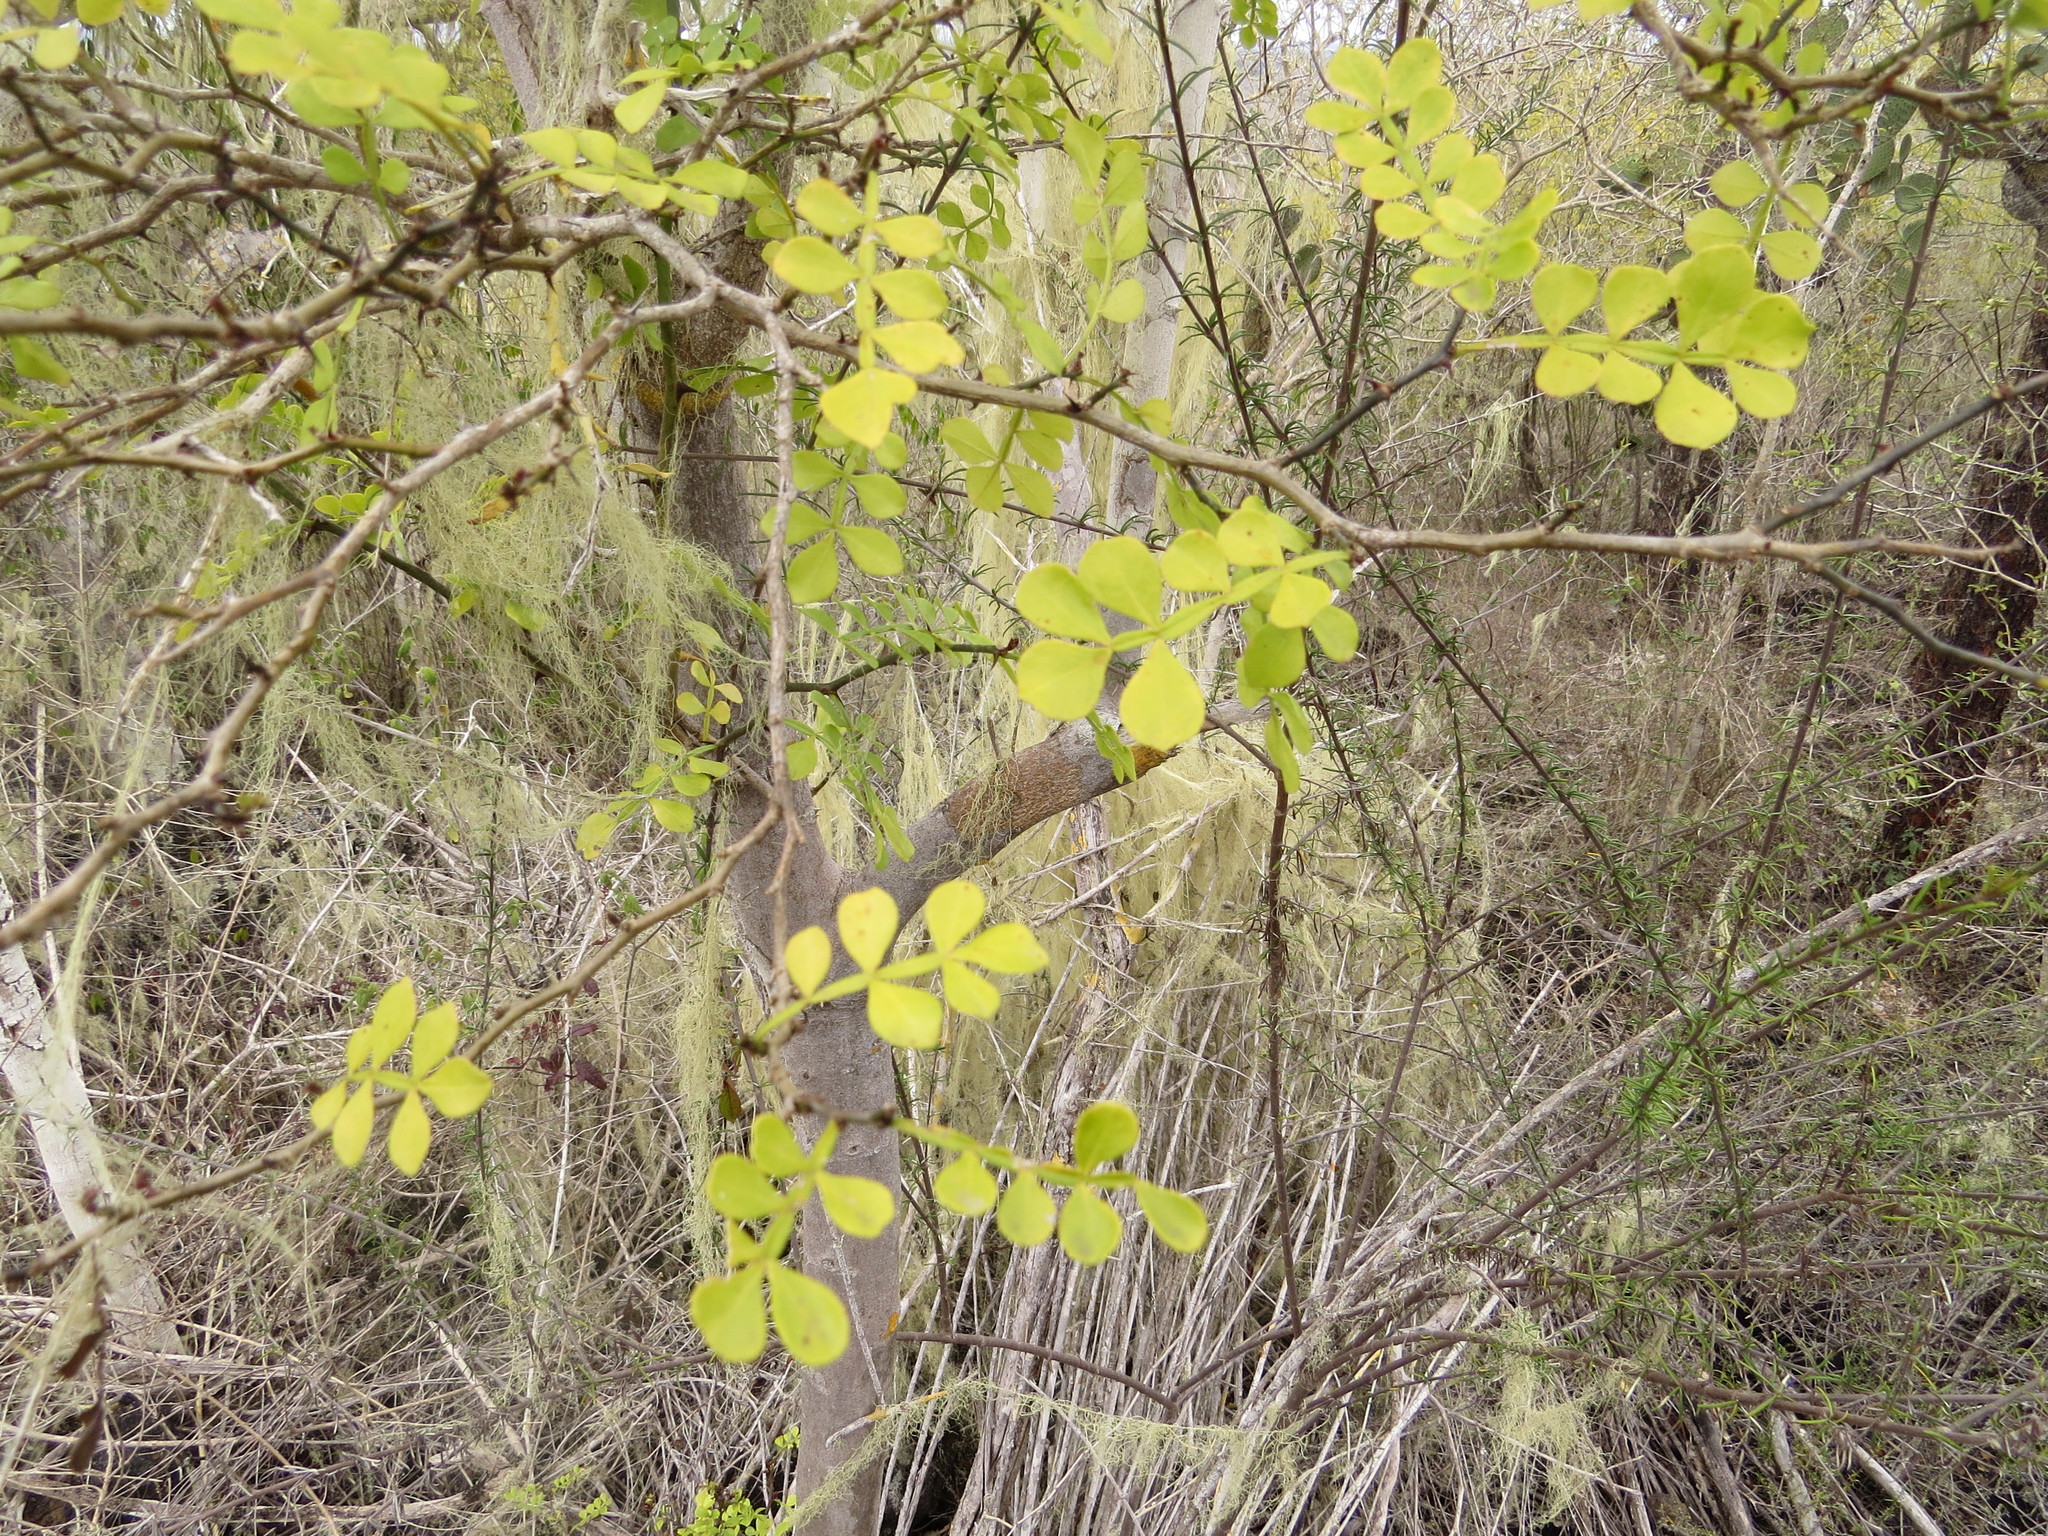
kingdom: Plantae
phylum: Tracheophyta
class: Magnoliopsida
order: Sapindales
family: Rutaceae
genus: Zanthoxylum
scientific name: Zanthoxylum fagara
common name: Lime prickly-ash
